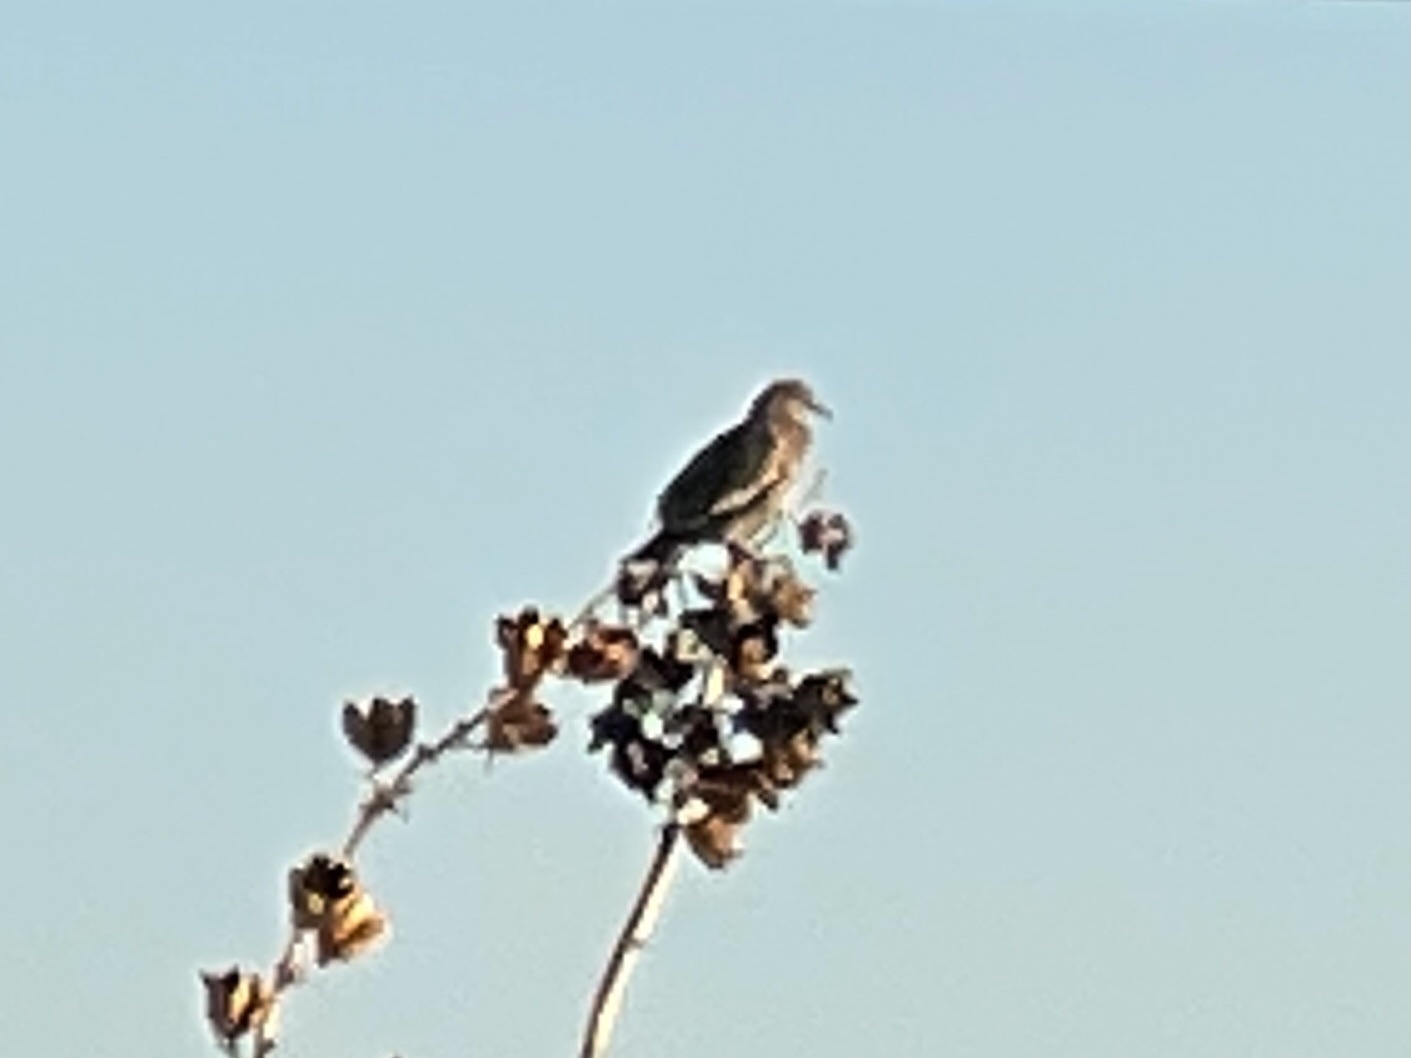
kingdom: Animalia
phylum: Chordata
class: Aves
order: Columbiformes
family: Columbidae
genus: Zenaida
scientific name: Zenaida asiatica
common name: White-winged dove
